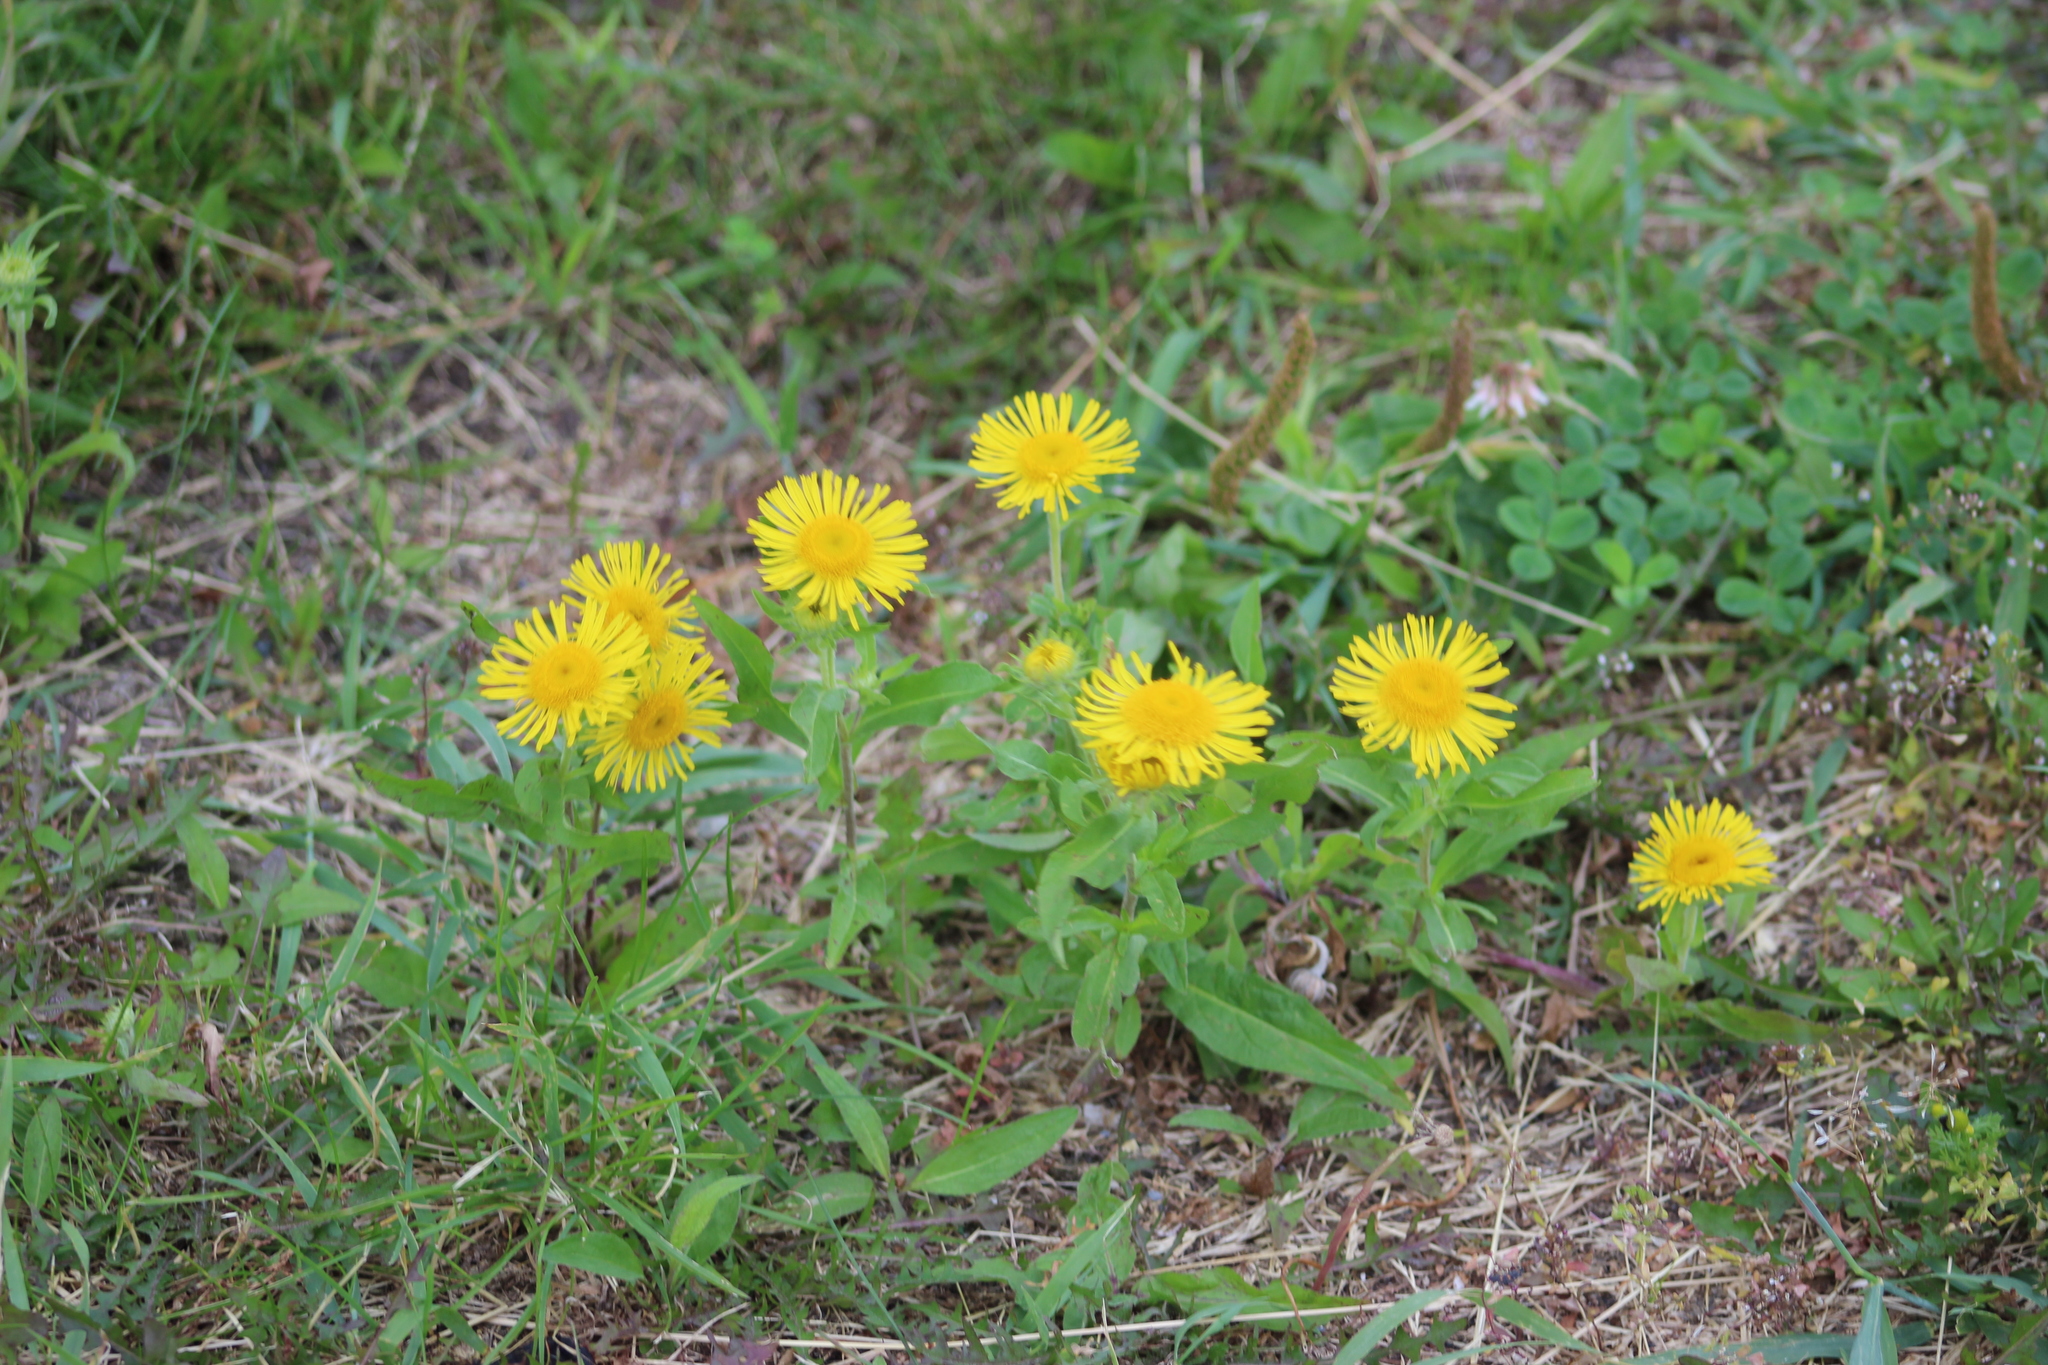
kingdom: Plantae
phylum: Tracheophyta
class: Magnoliopsida
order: Asterales
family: Asteraceae
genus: Pentanema
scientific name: Pentanema britannicum
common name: British elecampane
